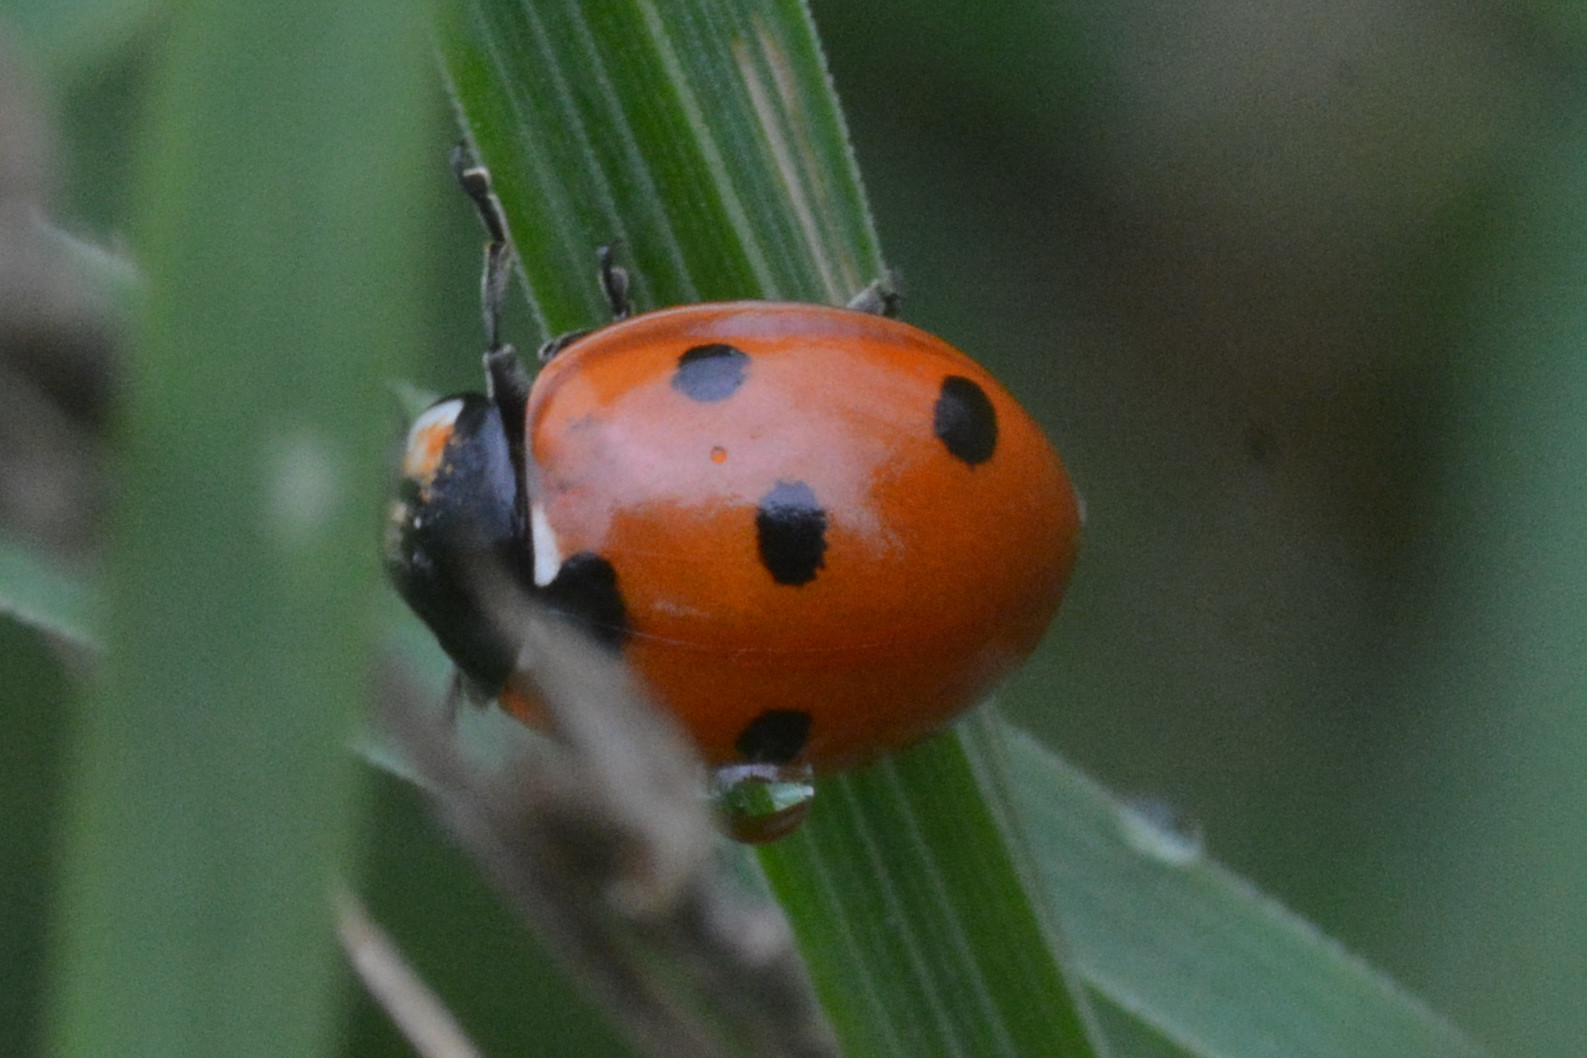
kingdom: Animalia
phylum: Arthropoda
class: Insecta
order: Coleoptera
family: Coccinellidae
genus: Coccinella
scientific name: Coccinella septempunctata
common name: Sevenspotted lady beetle
